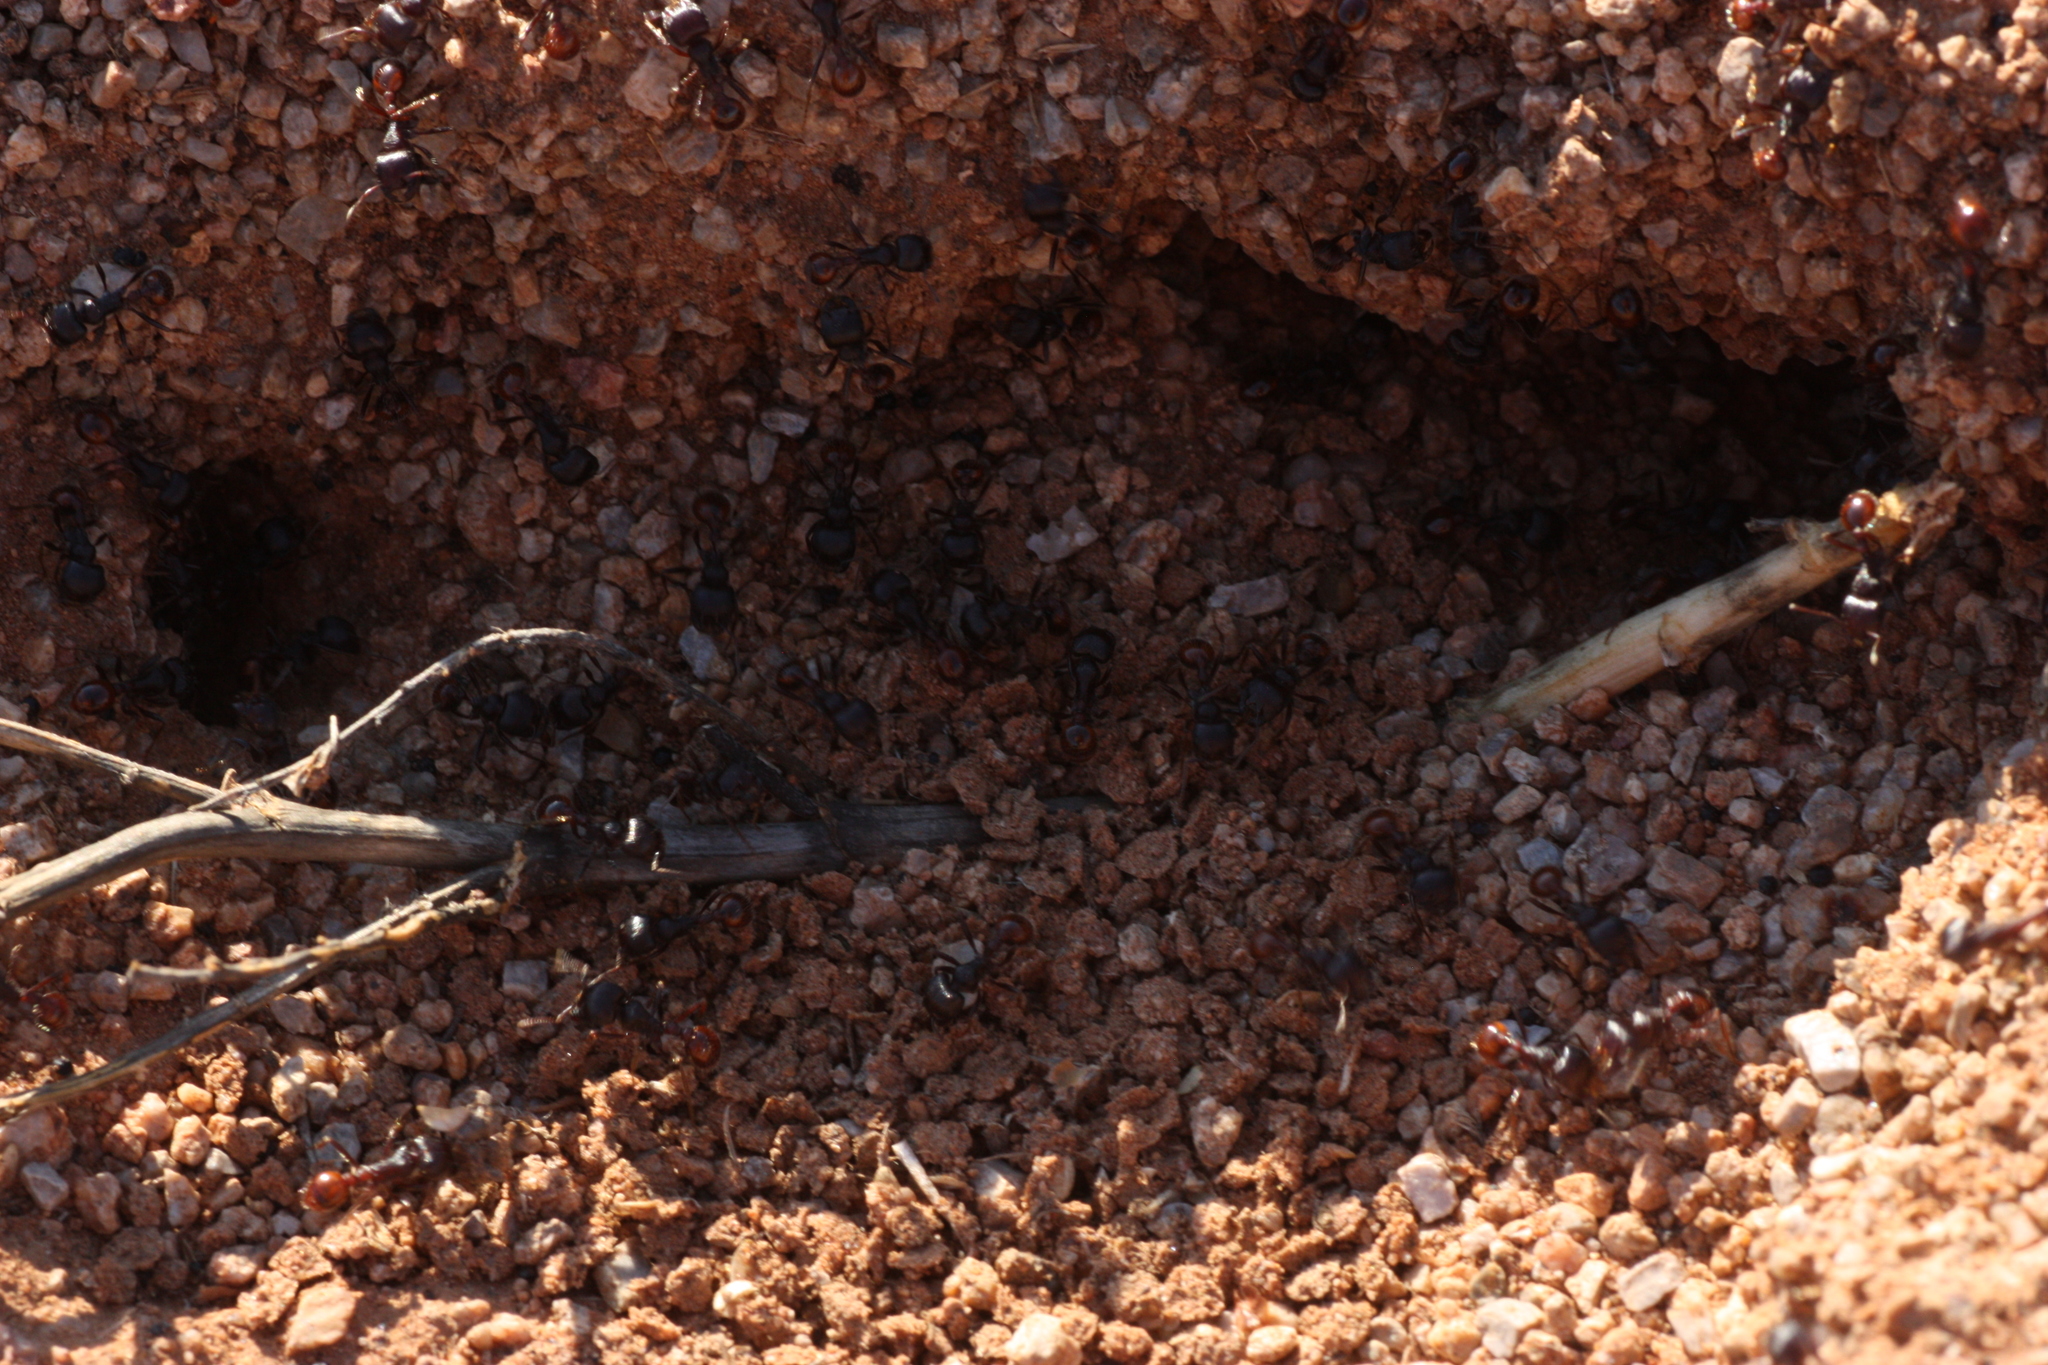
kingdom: Animalia
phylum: Arthropoda
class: Insecta
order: Hymenoptera
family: Formicidae
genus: Pogonomyrmex
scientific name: Pogonomyrmex rugosus
